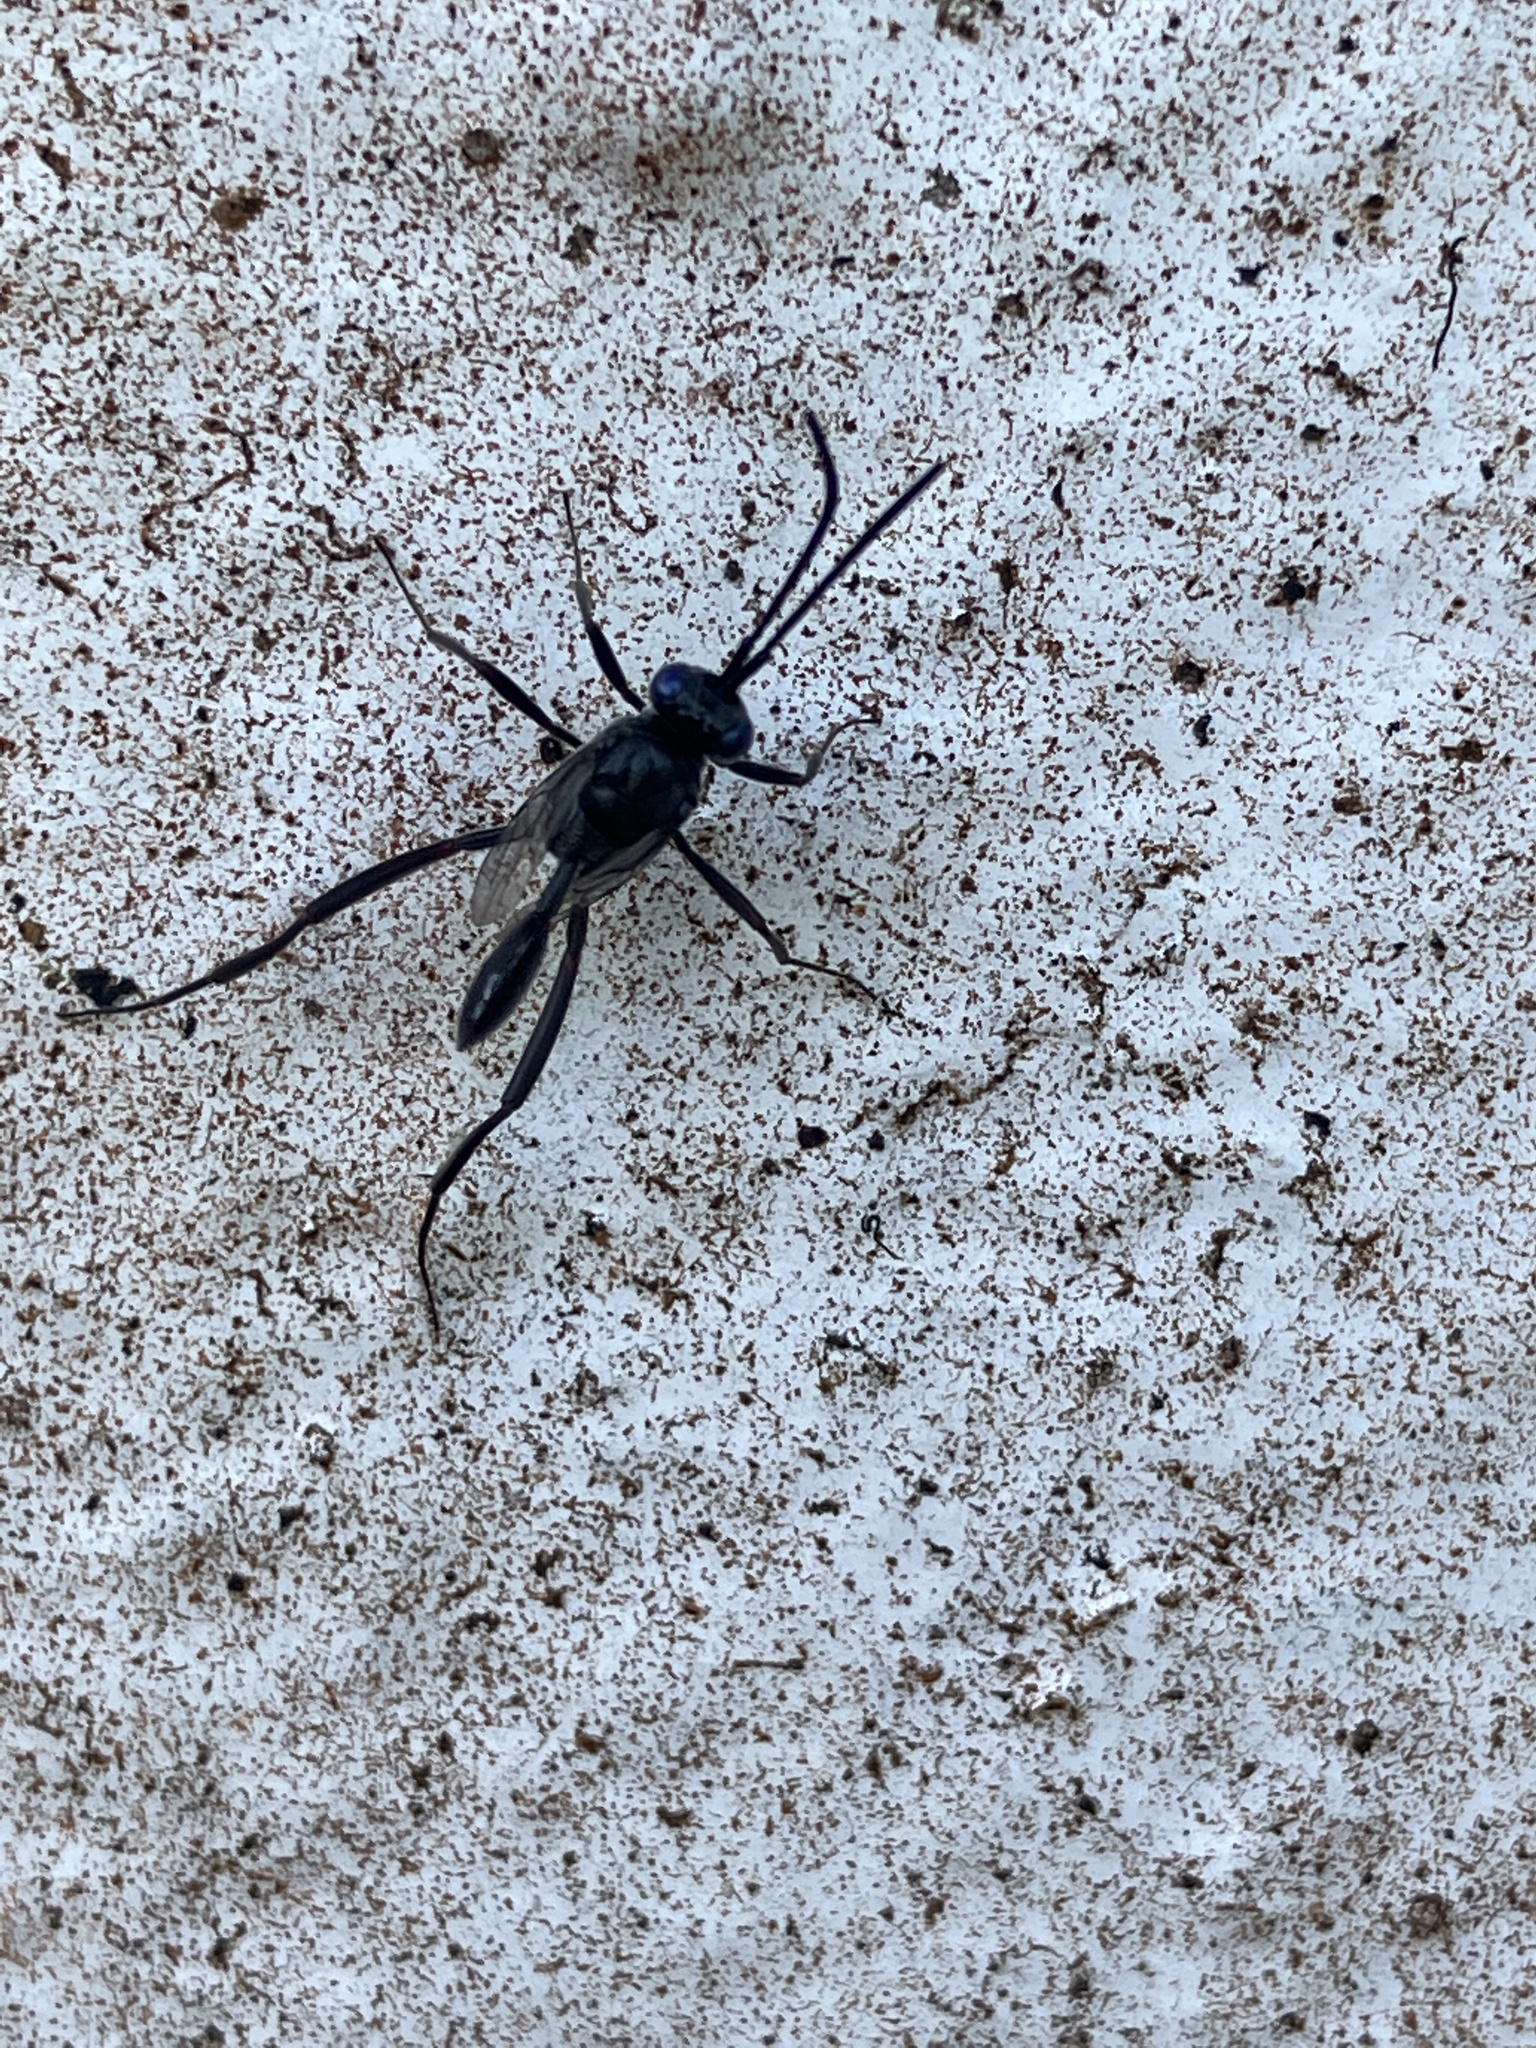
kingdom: Animalia
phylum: Arthropoda
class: Insecta
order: Hymenoptera
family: Evaniidae
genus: Evania
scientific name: Evania appendigaster
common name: Ensign wasp
